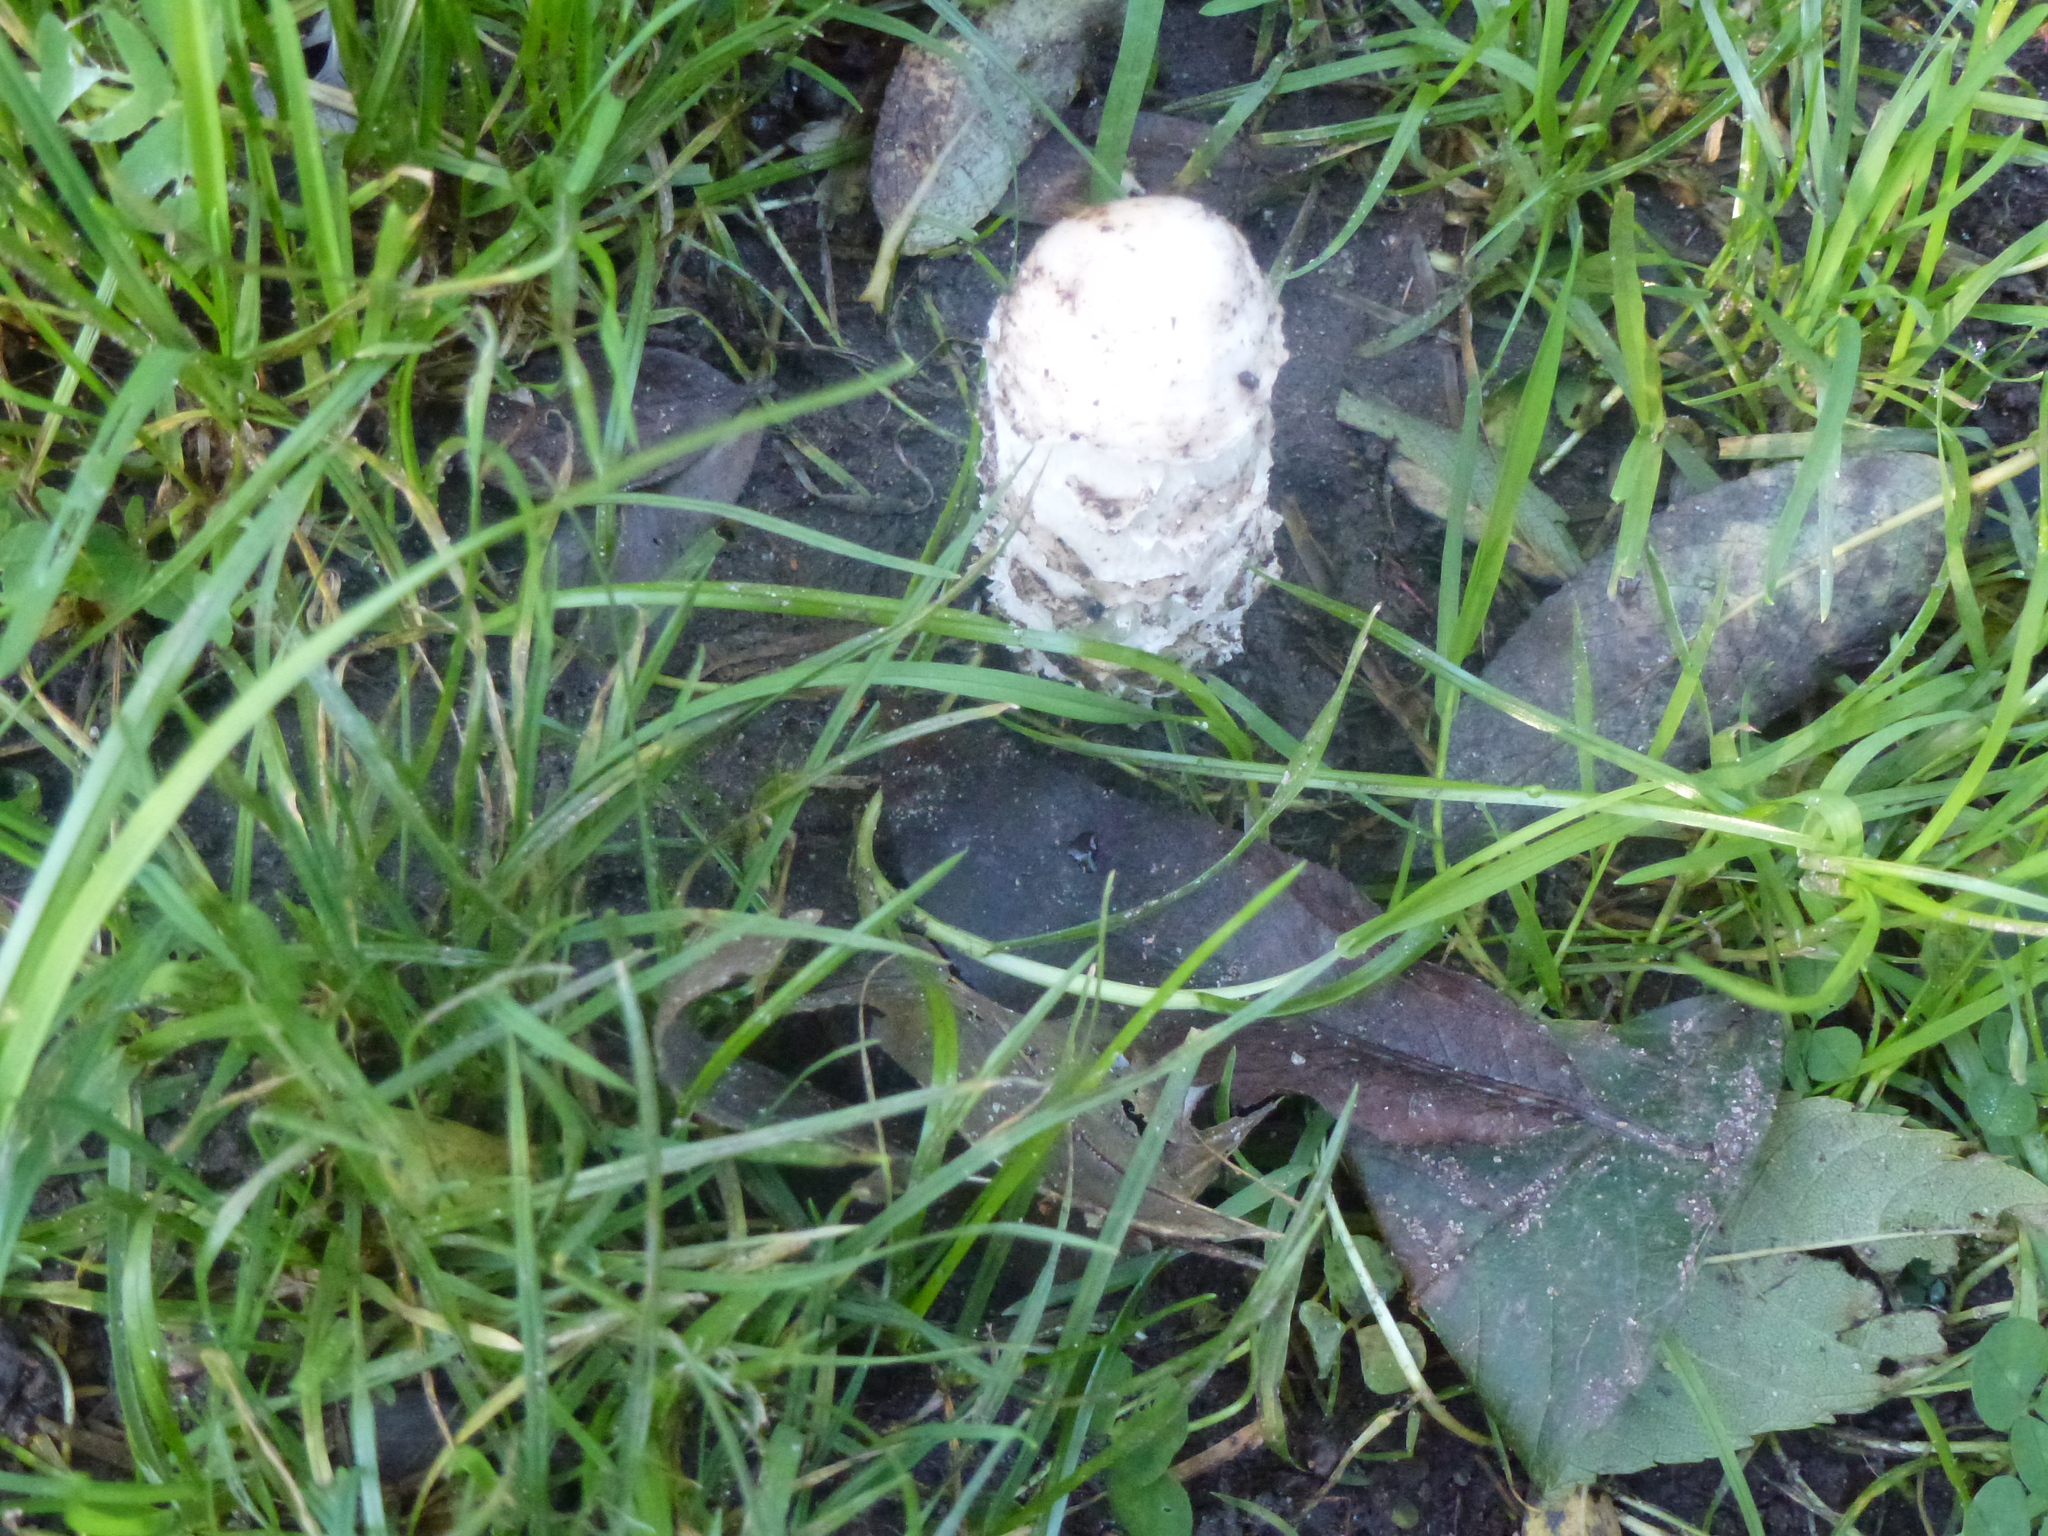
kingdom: Fungi
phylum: Basidiomycota
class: Agaricomycetes
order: Agaricales
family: Agaricaceae
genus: Coprinus
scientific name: Coprinus comatus
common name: Lawyer's wig
